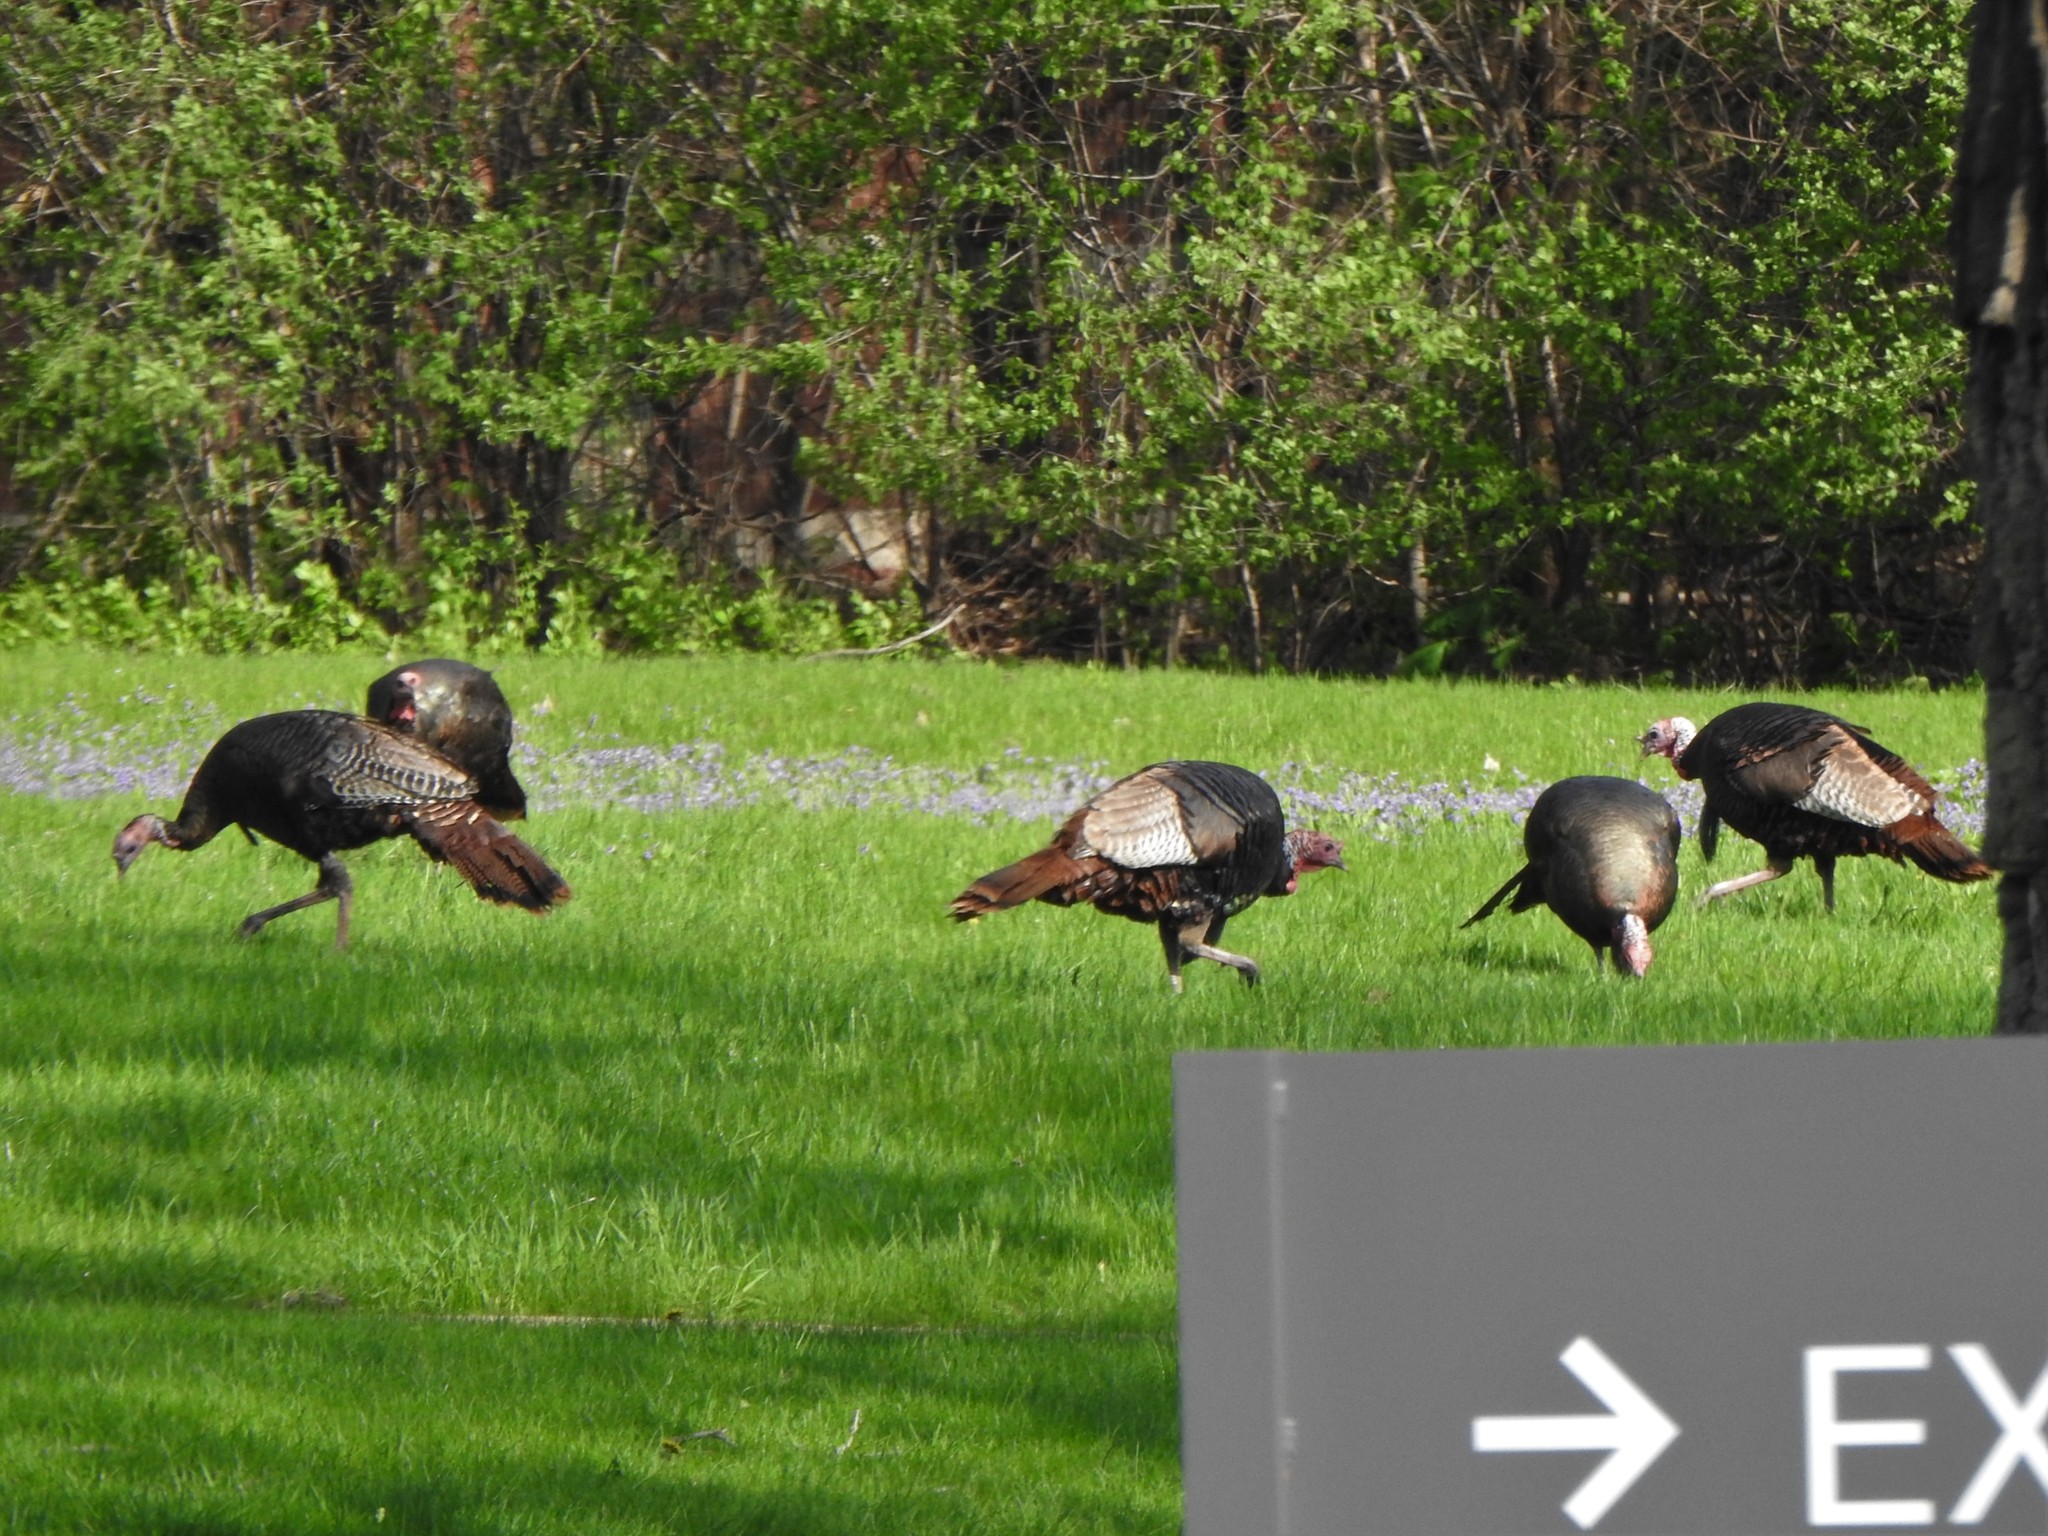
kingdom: Animalia
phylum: Chordata
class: Aves
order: Galliformes
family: Phasianidae
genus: Meleagris
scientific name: Meleagris gallopavo
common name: Wild turkey
